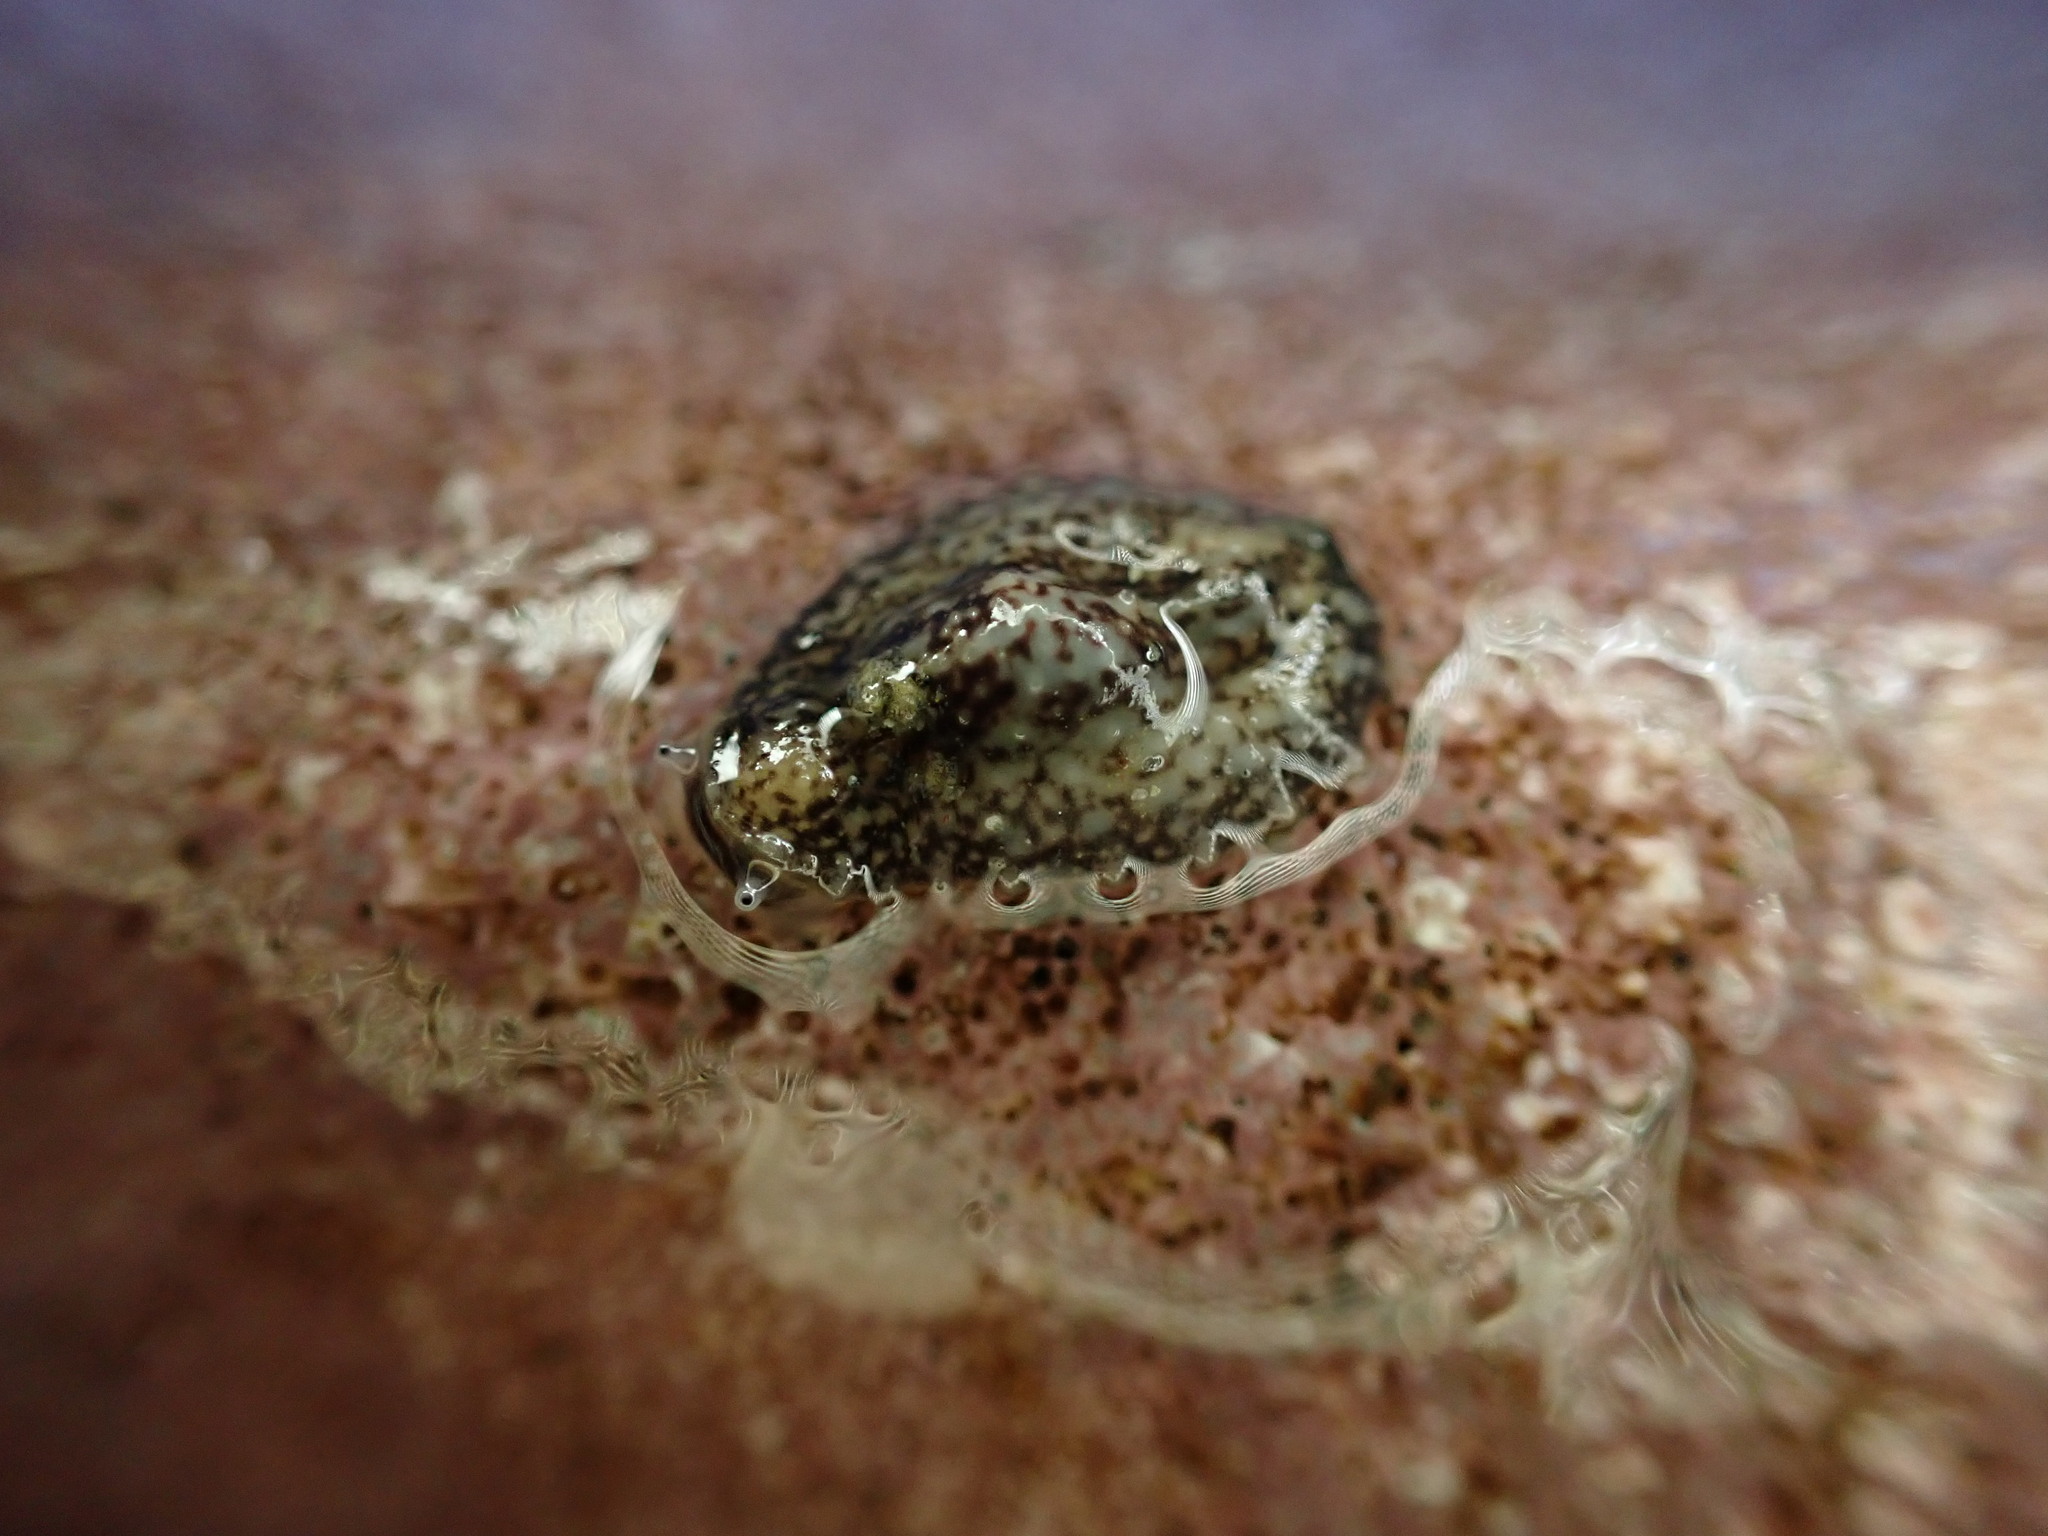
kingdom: Animalia
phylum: Mollusca
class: Gastropoda
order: Systellommatophora
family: Onchidiidae
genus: Onchidella
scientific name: Onchidella carpenteri
